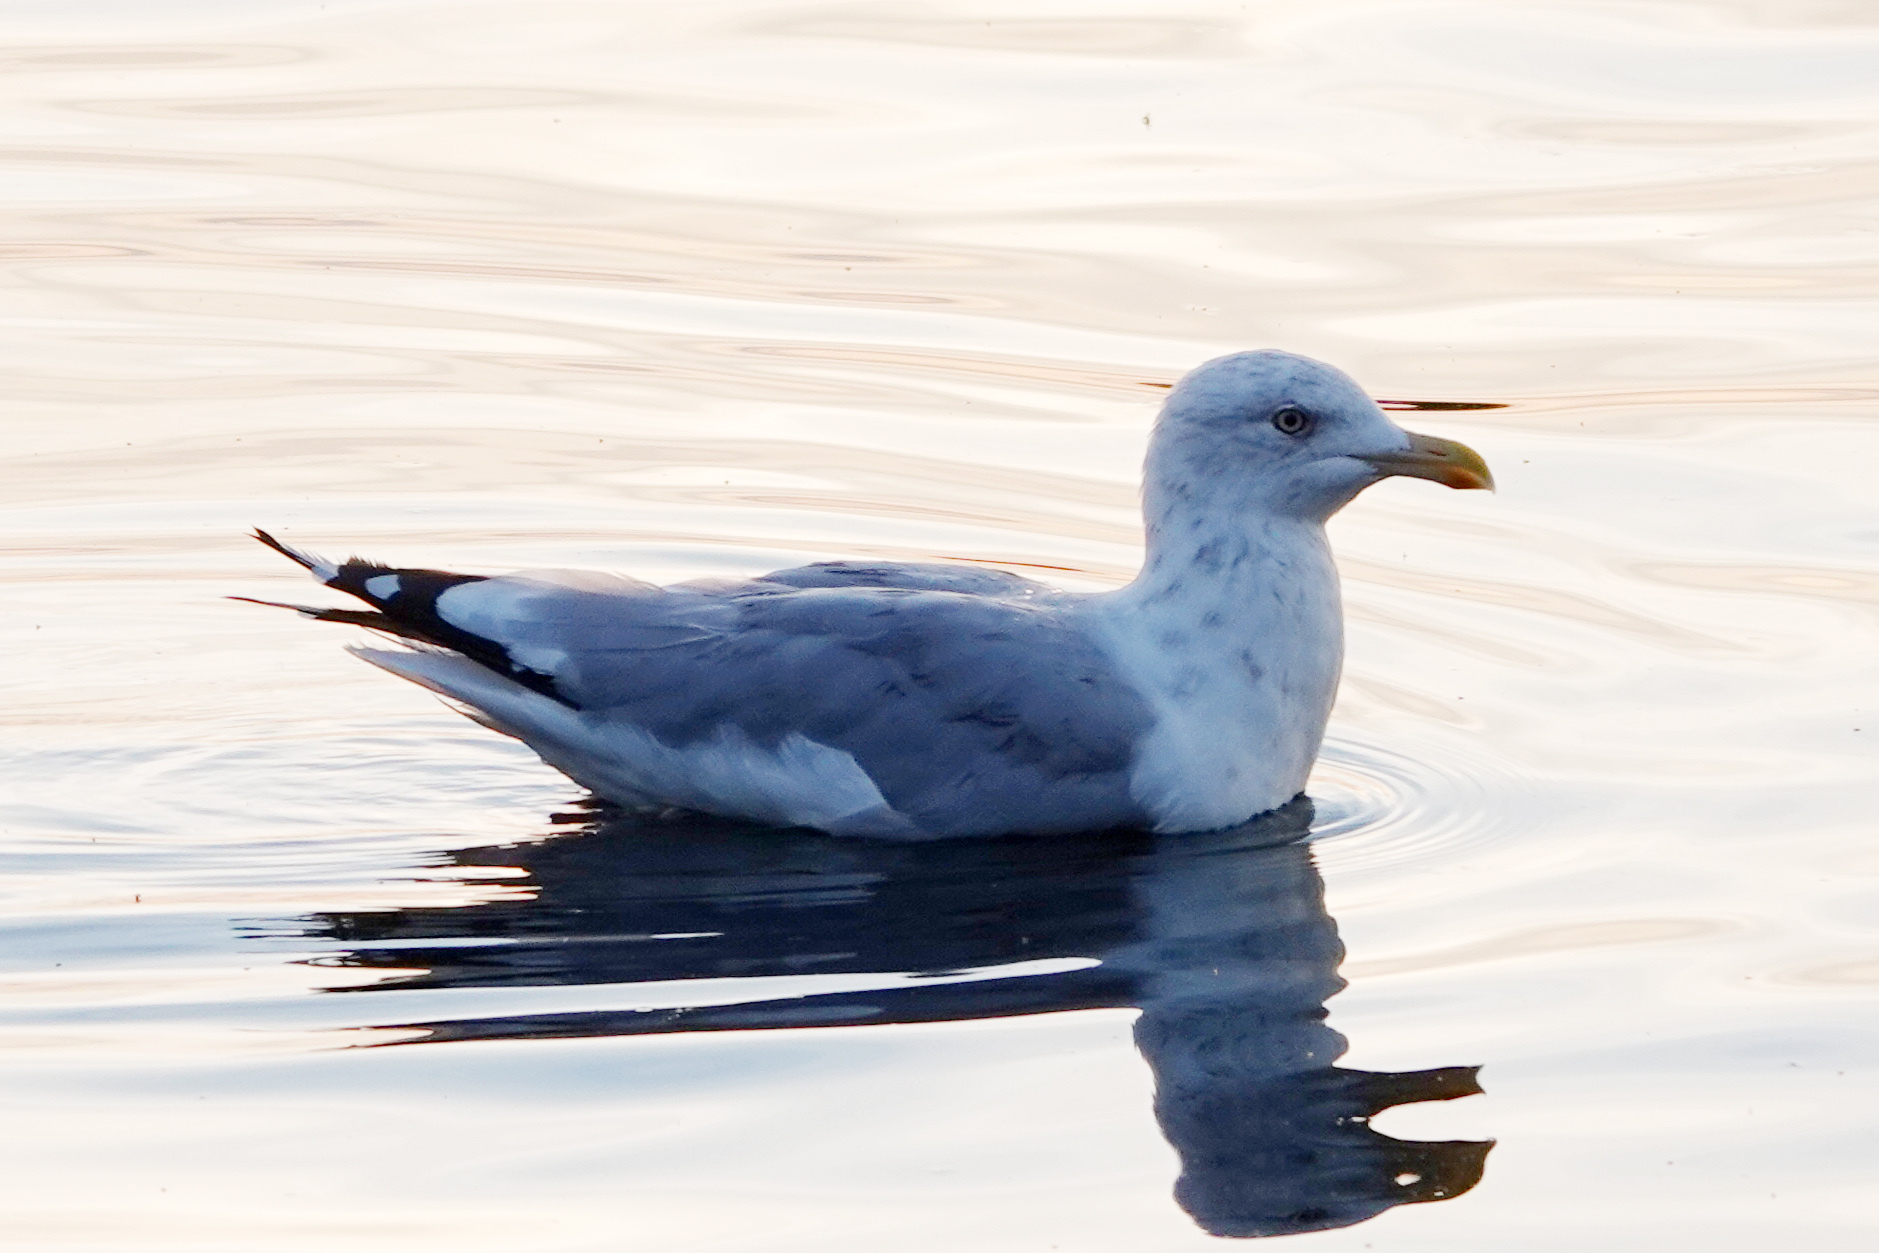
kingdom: Animalia
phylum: Chordata
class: Aves
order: Charadriiformes
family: Laridae
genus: Larus
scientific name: Larus argentatus
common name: Herring gull
